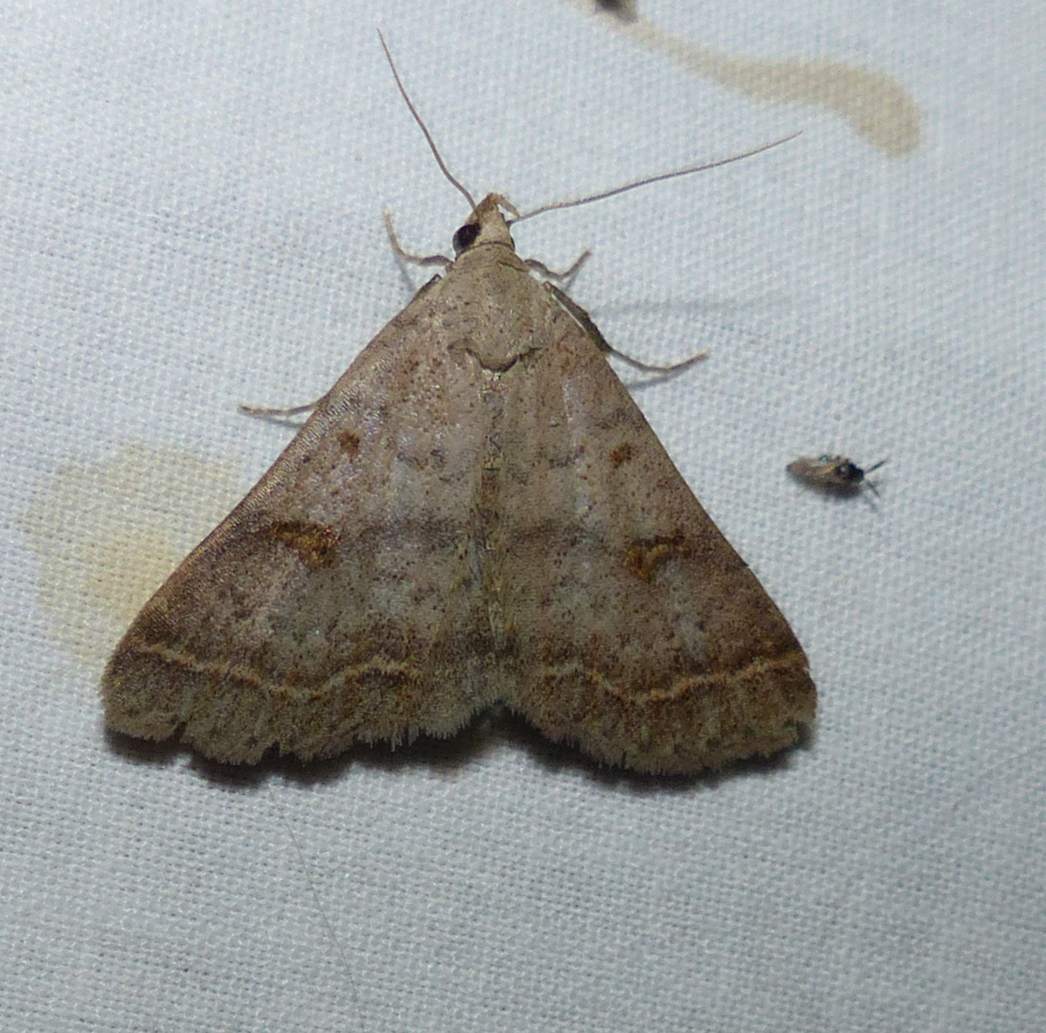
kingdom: Animalia
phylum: Arthropoda
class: Insecta
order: Lepidoptera
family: Erebidae
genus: Bleptina
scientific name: Bleptina caradrinalis
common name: Bent-winged owlet
